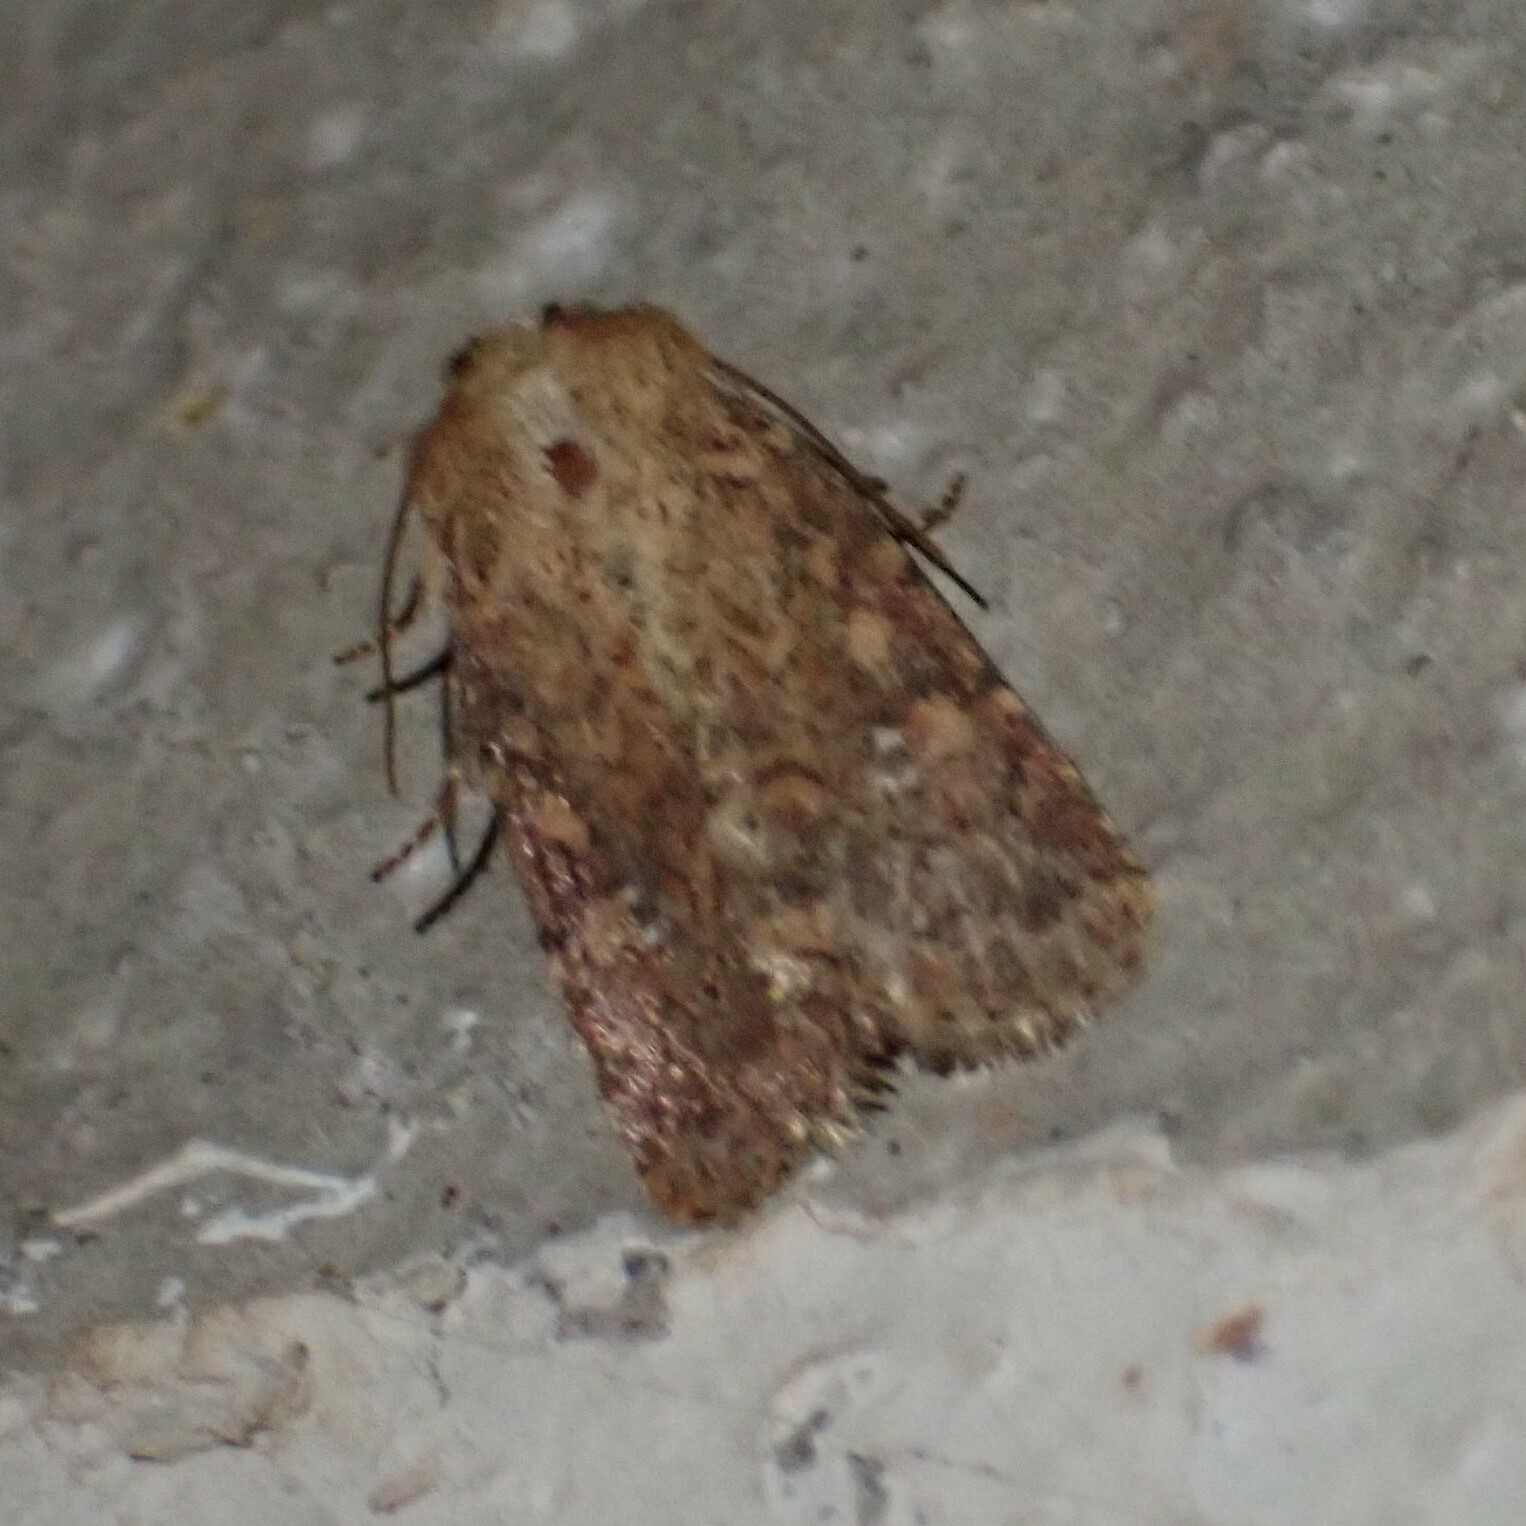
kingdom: Animalia
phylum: Arthropoda
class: Insecta
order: Lepidoptera
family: Noctuidae
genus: Homorthodes
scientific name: Homorthodes lindseyi
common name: Southern scurfy quaker
